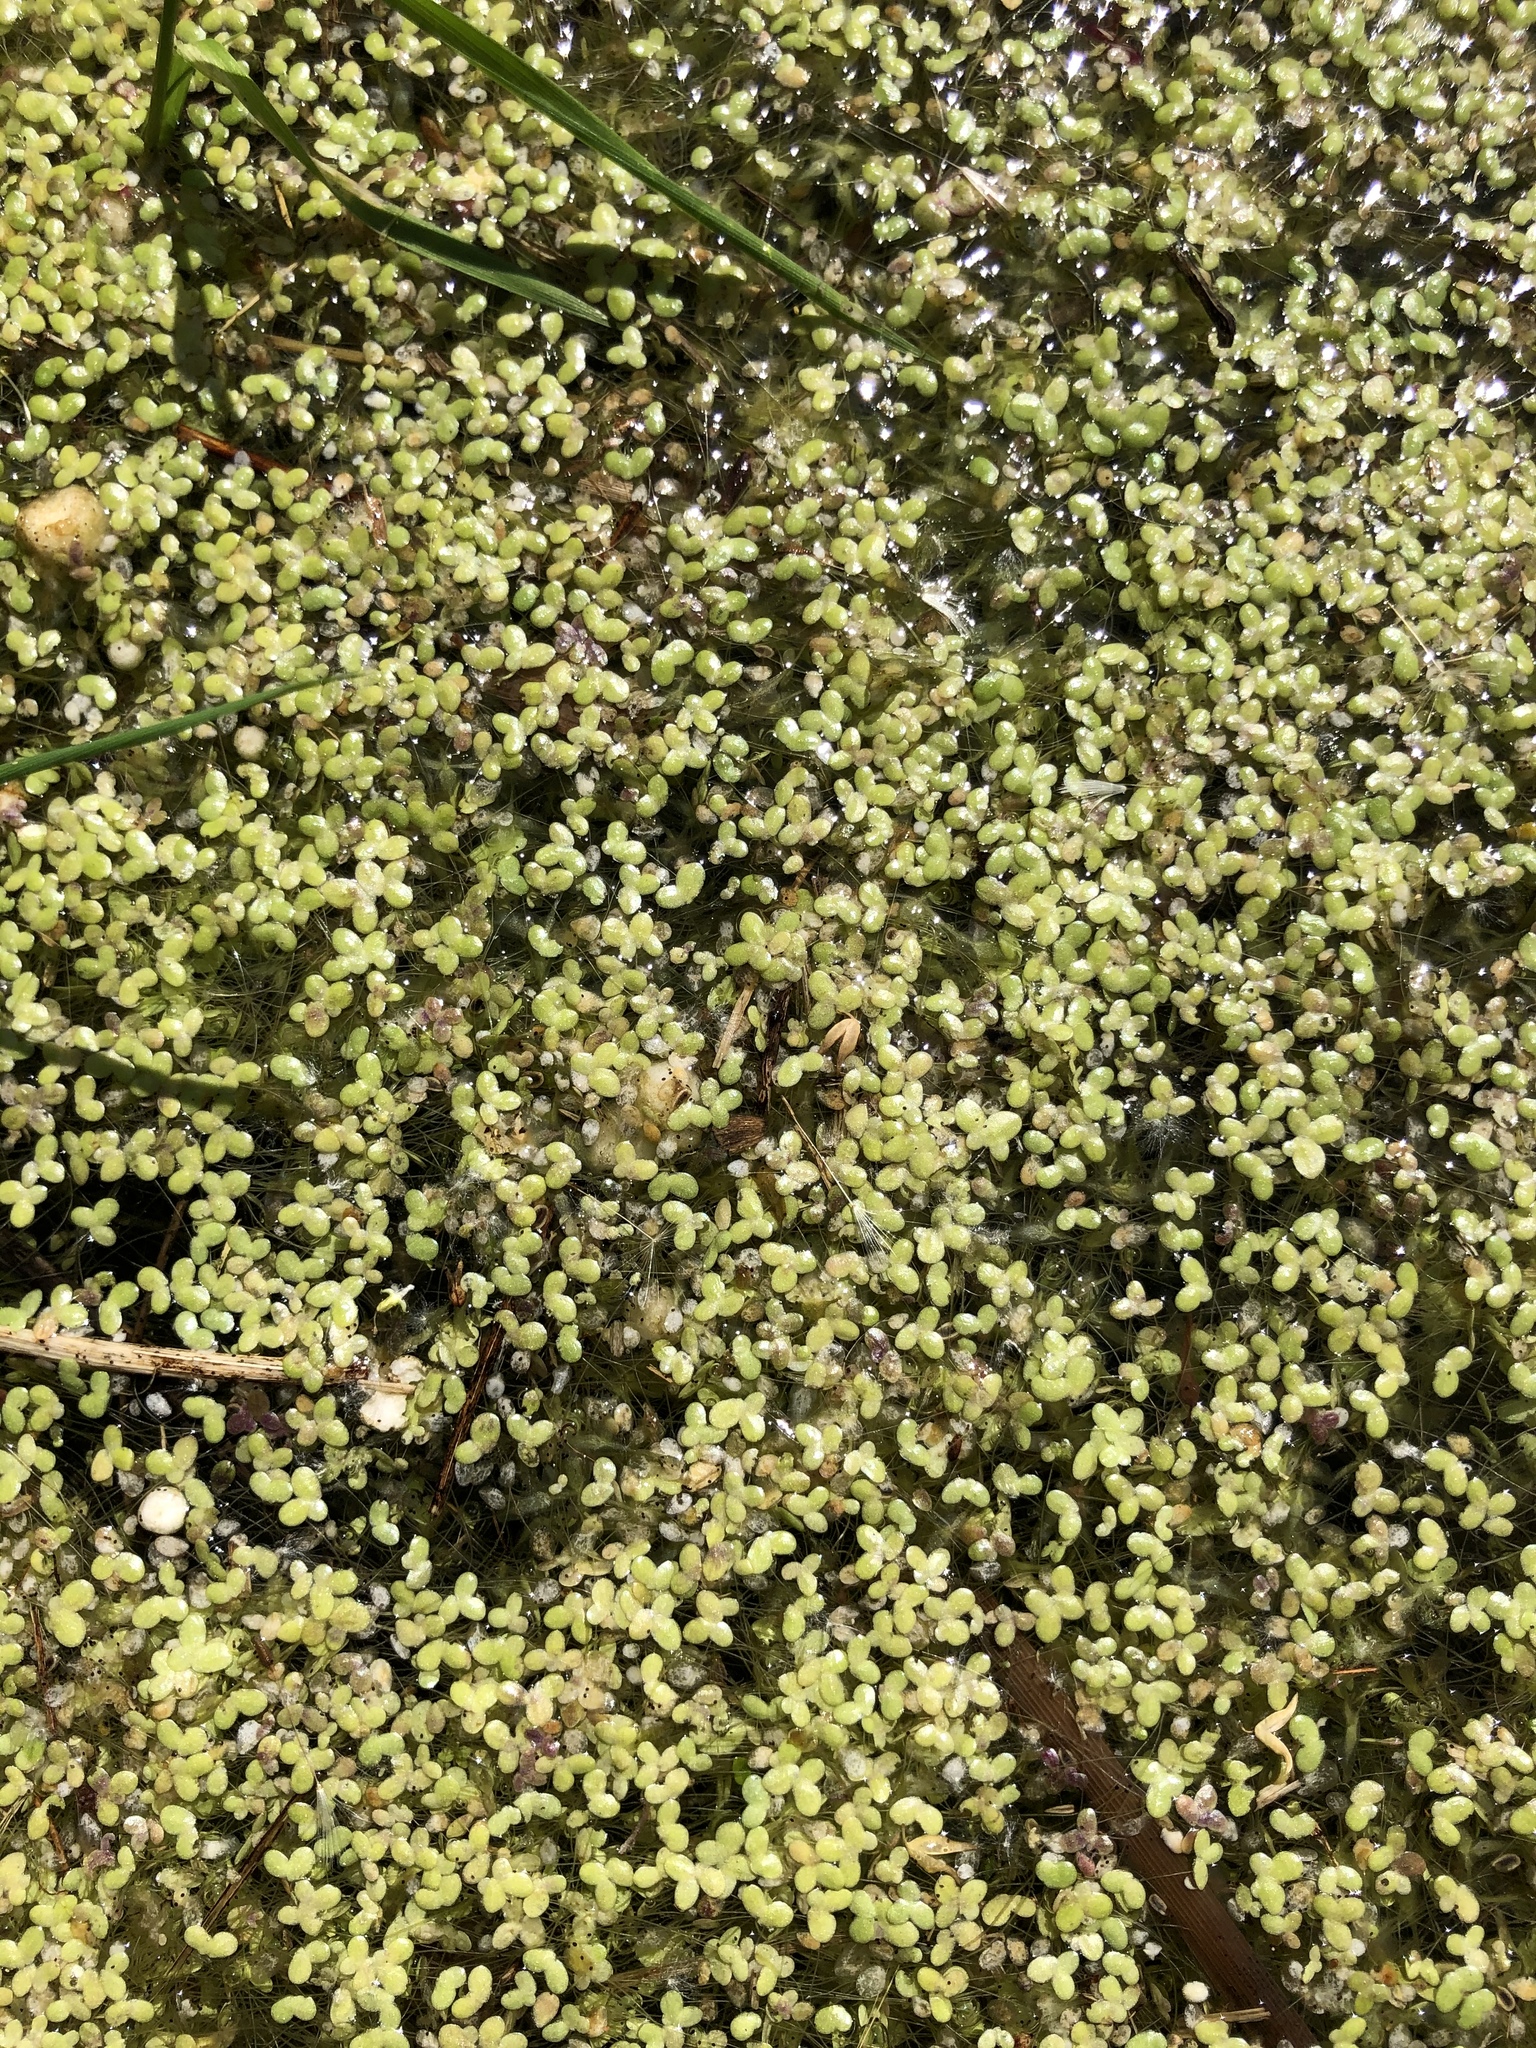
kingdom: Plantae
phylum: Tracheophyta
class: Liliopsida
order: Alismatales
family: Araceae
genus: Lemna
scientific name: Lemna turionifera
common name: Perennial duckweed
